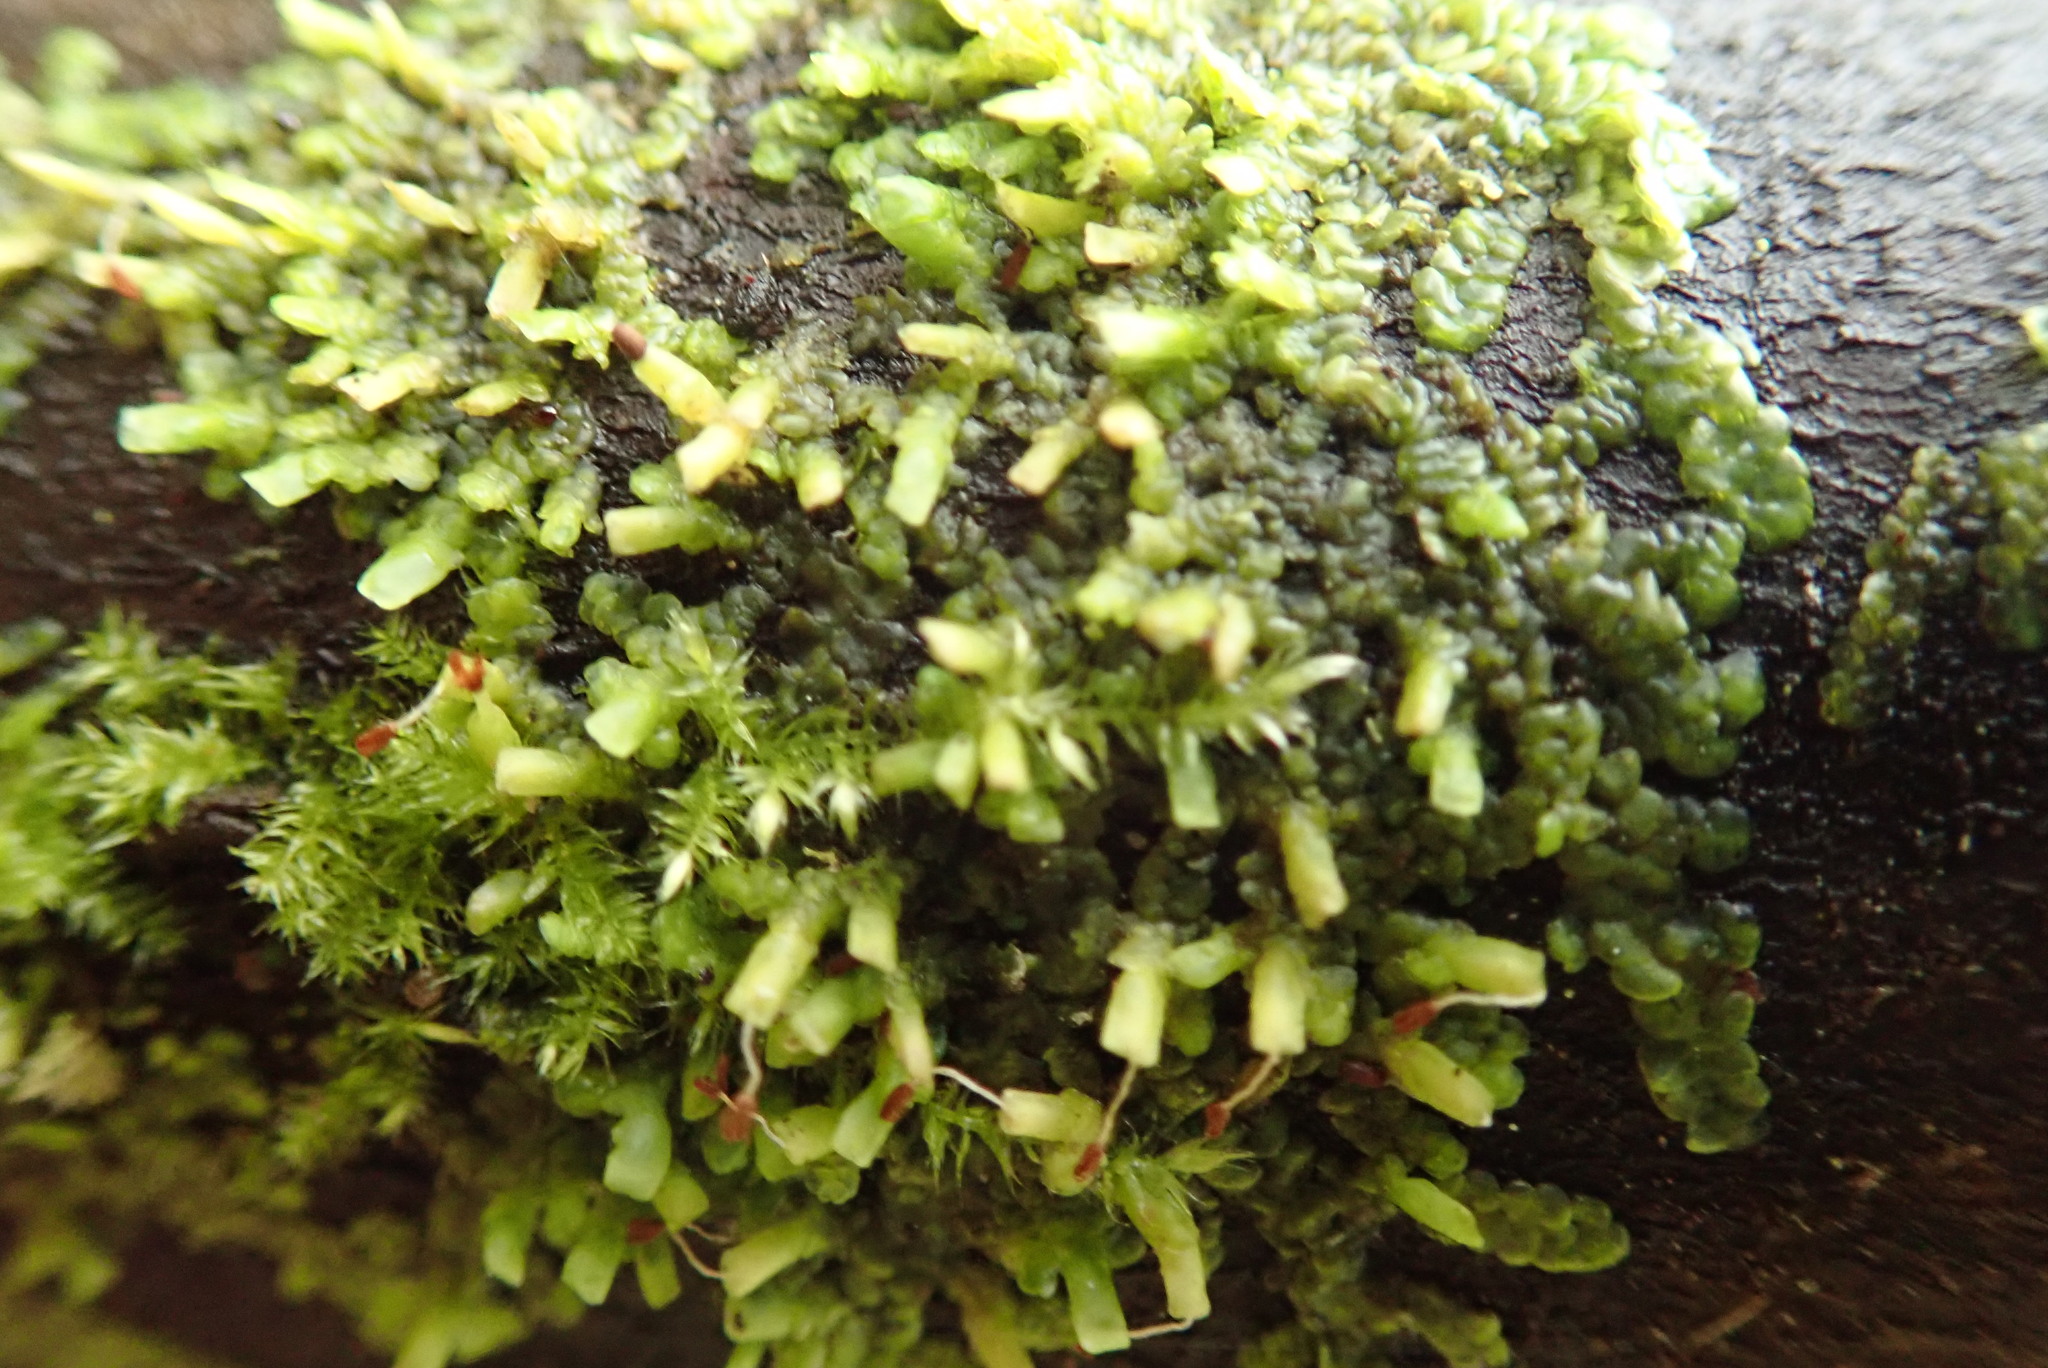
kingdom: Plantae
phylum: Marchantiophyta
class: Jungermanniopsida
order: Porellales
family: Radulaceae
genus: Radula
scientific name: Radula complanata
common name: Flat-leaved scalewort
